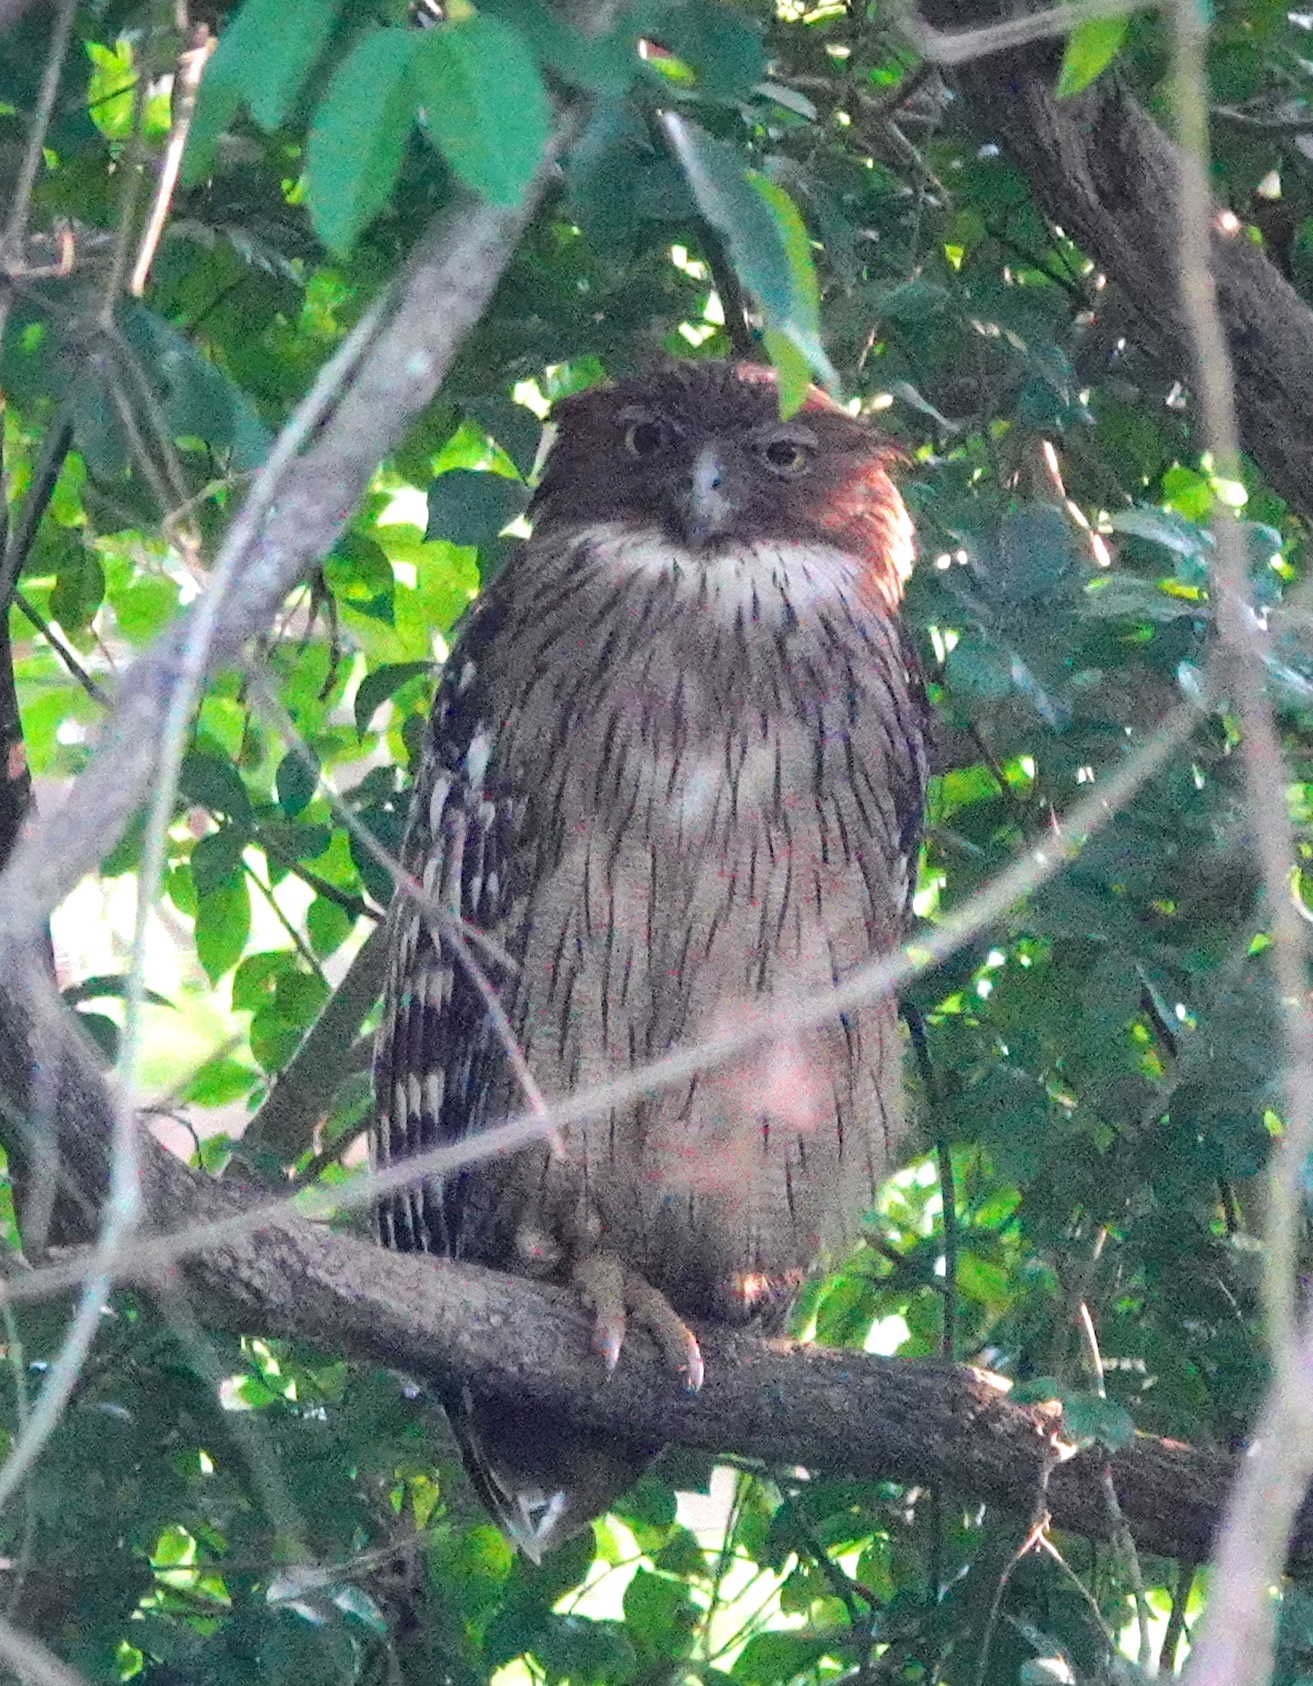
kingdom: Animalia
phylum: Chordata
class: Aves
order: Strigiformes
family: Strigidae
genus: Ketupa
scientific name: Ketupa zeylonensis
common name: Brown fish owl
